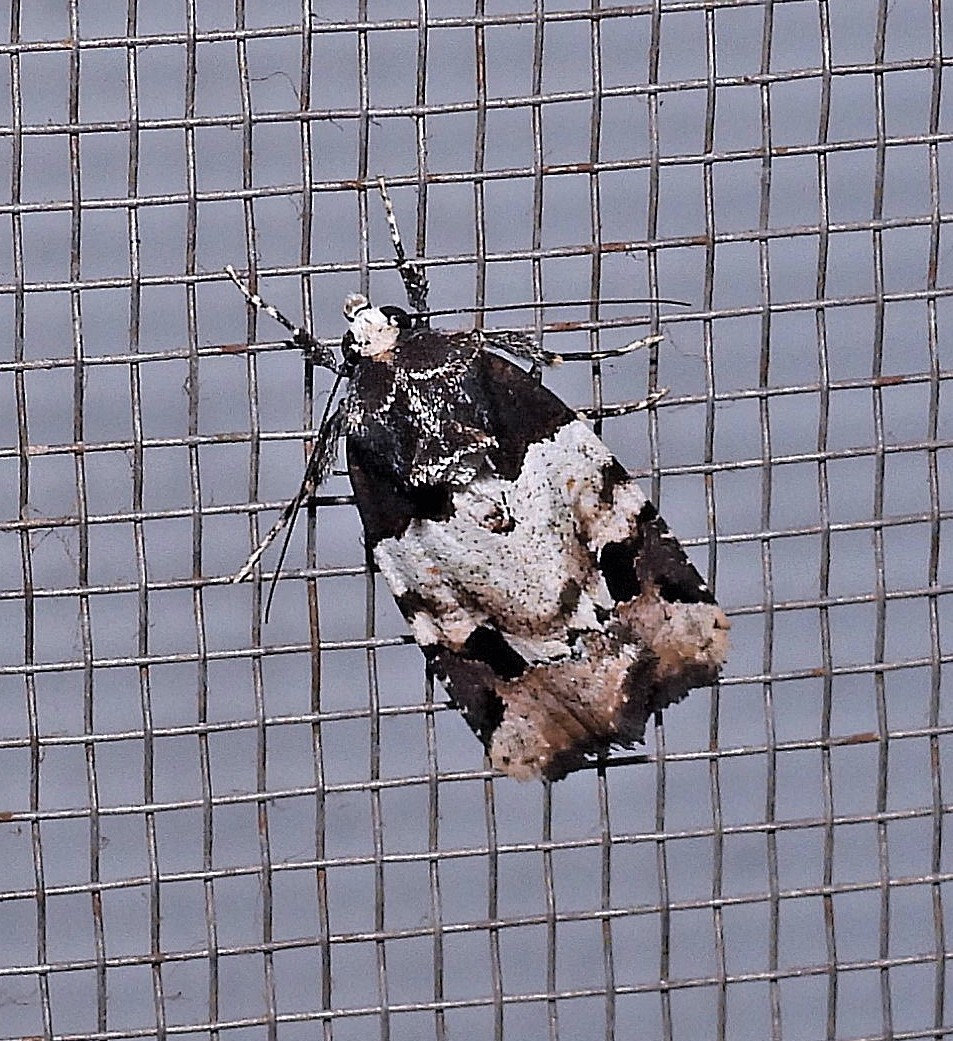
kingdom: Animalia
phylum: Arthropoda
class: Insecta
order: Lepidoptera
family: Noctuidae
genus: Bryolymnia
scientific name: Bryolymnia bicon
